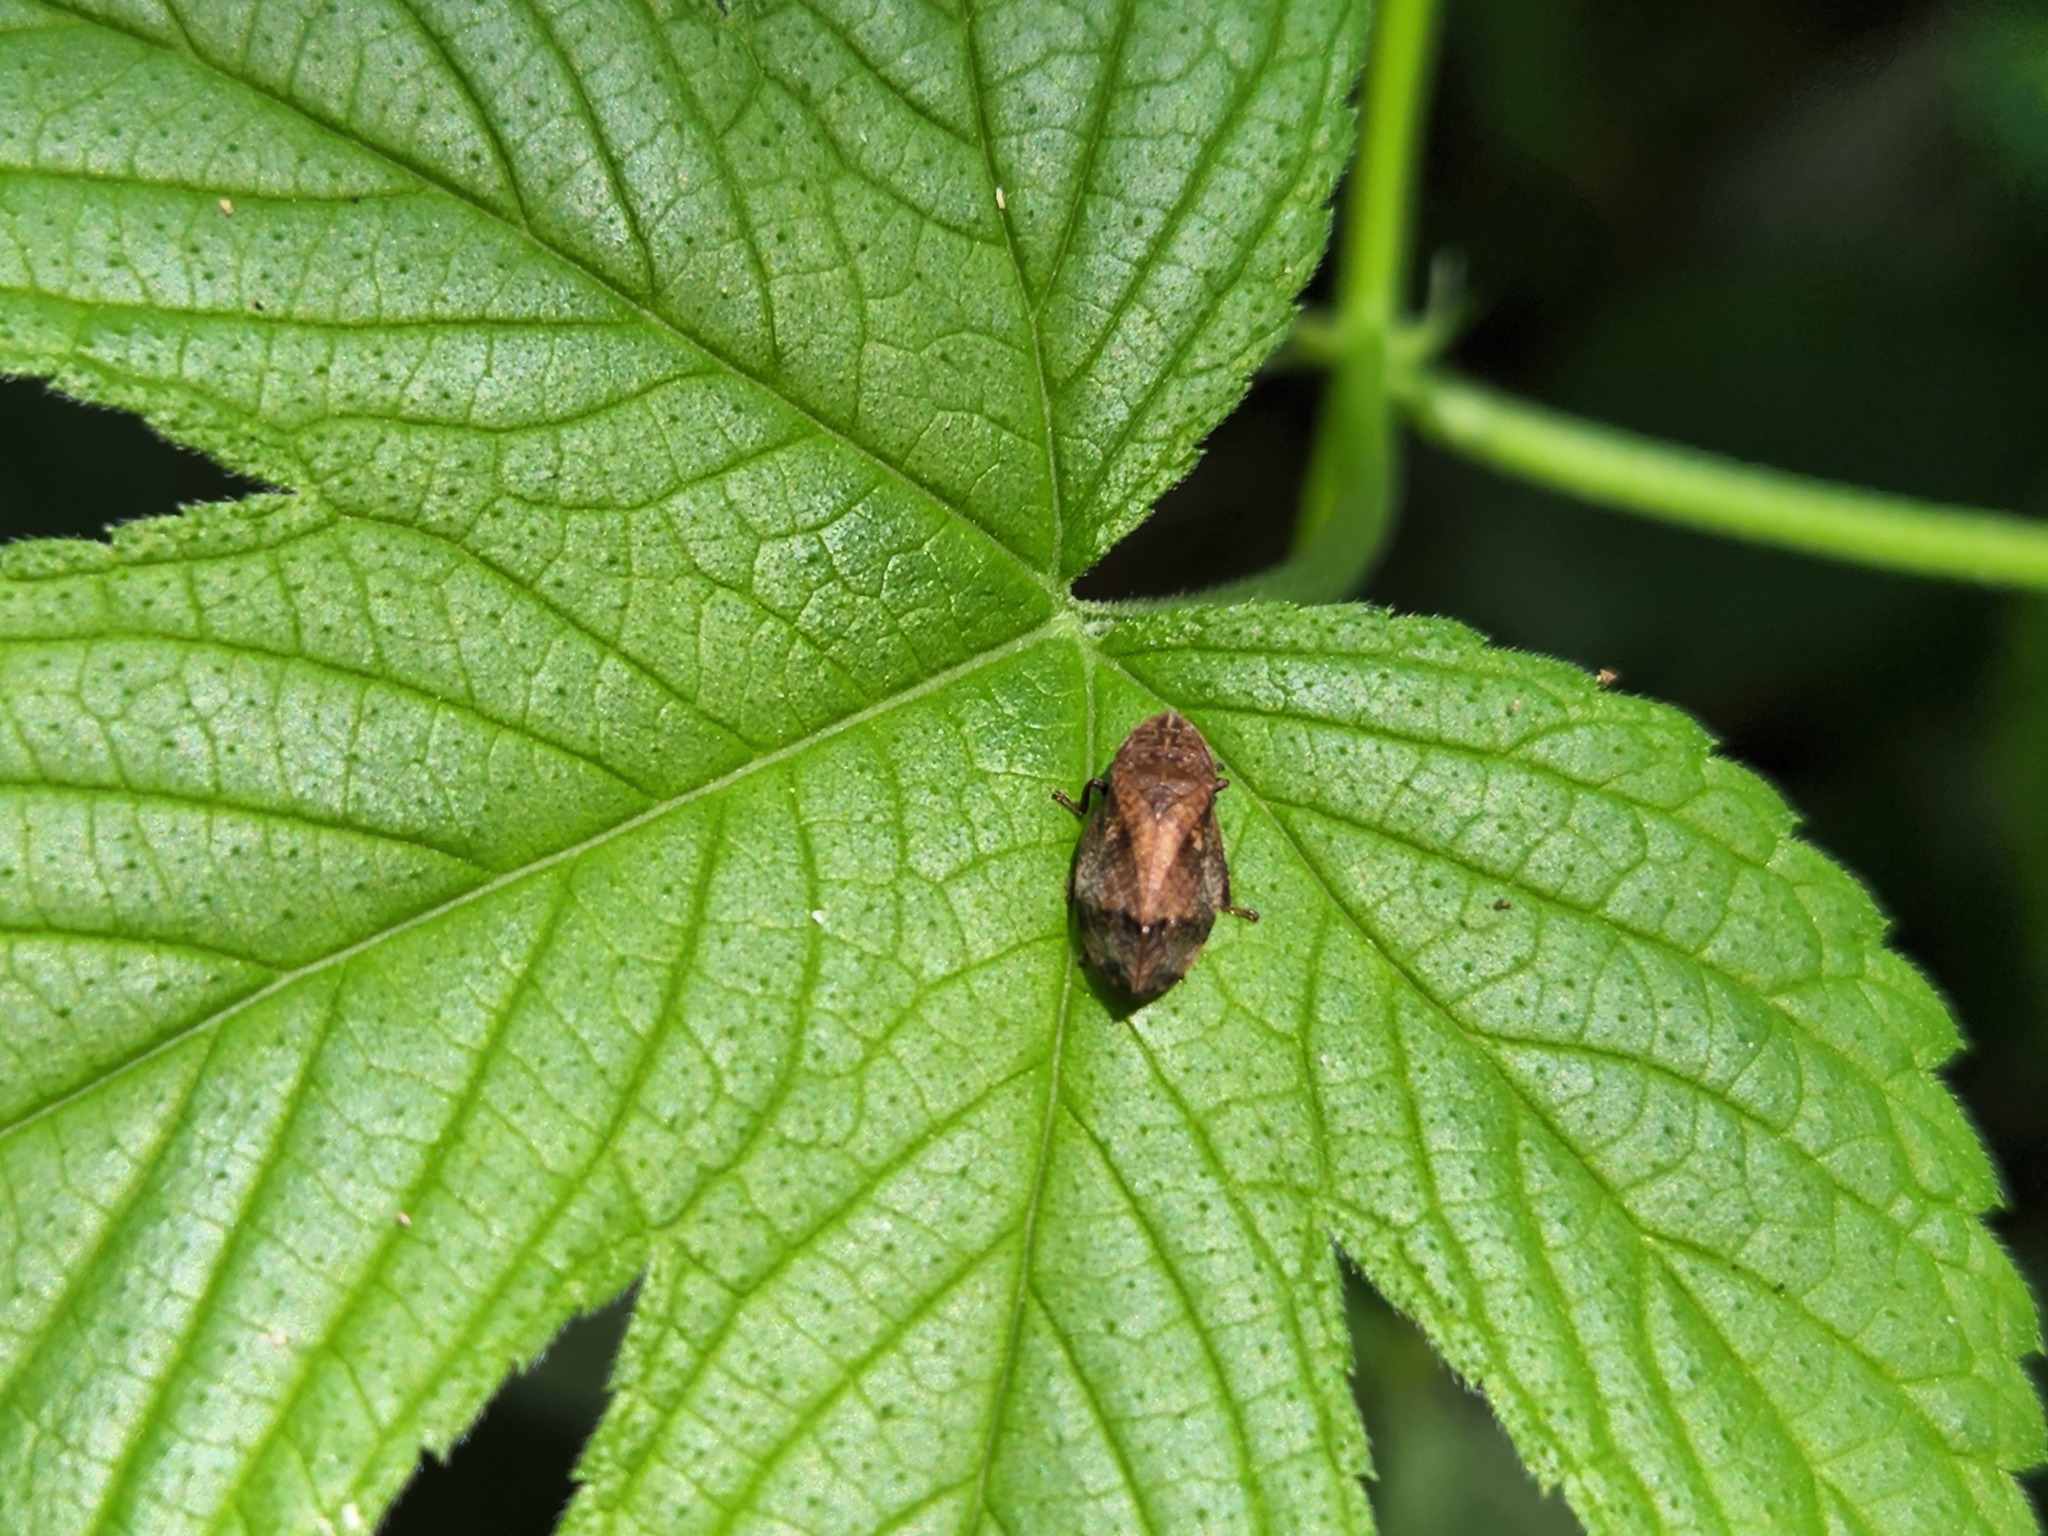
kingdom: Animalia
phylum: Arthropoda
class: Insecta
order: Hemiptera
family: Aphrophoridae
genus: Lepyronia
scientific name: Lepyronia quadrangularis
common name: Diamond-backed spittlebug
